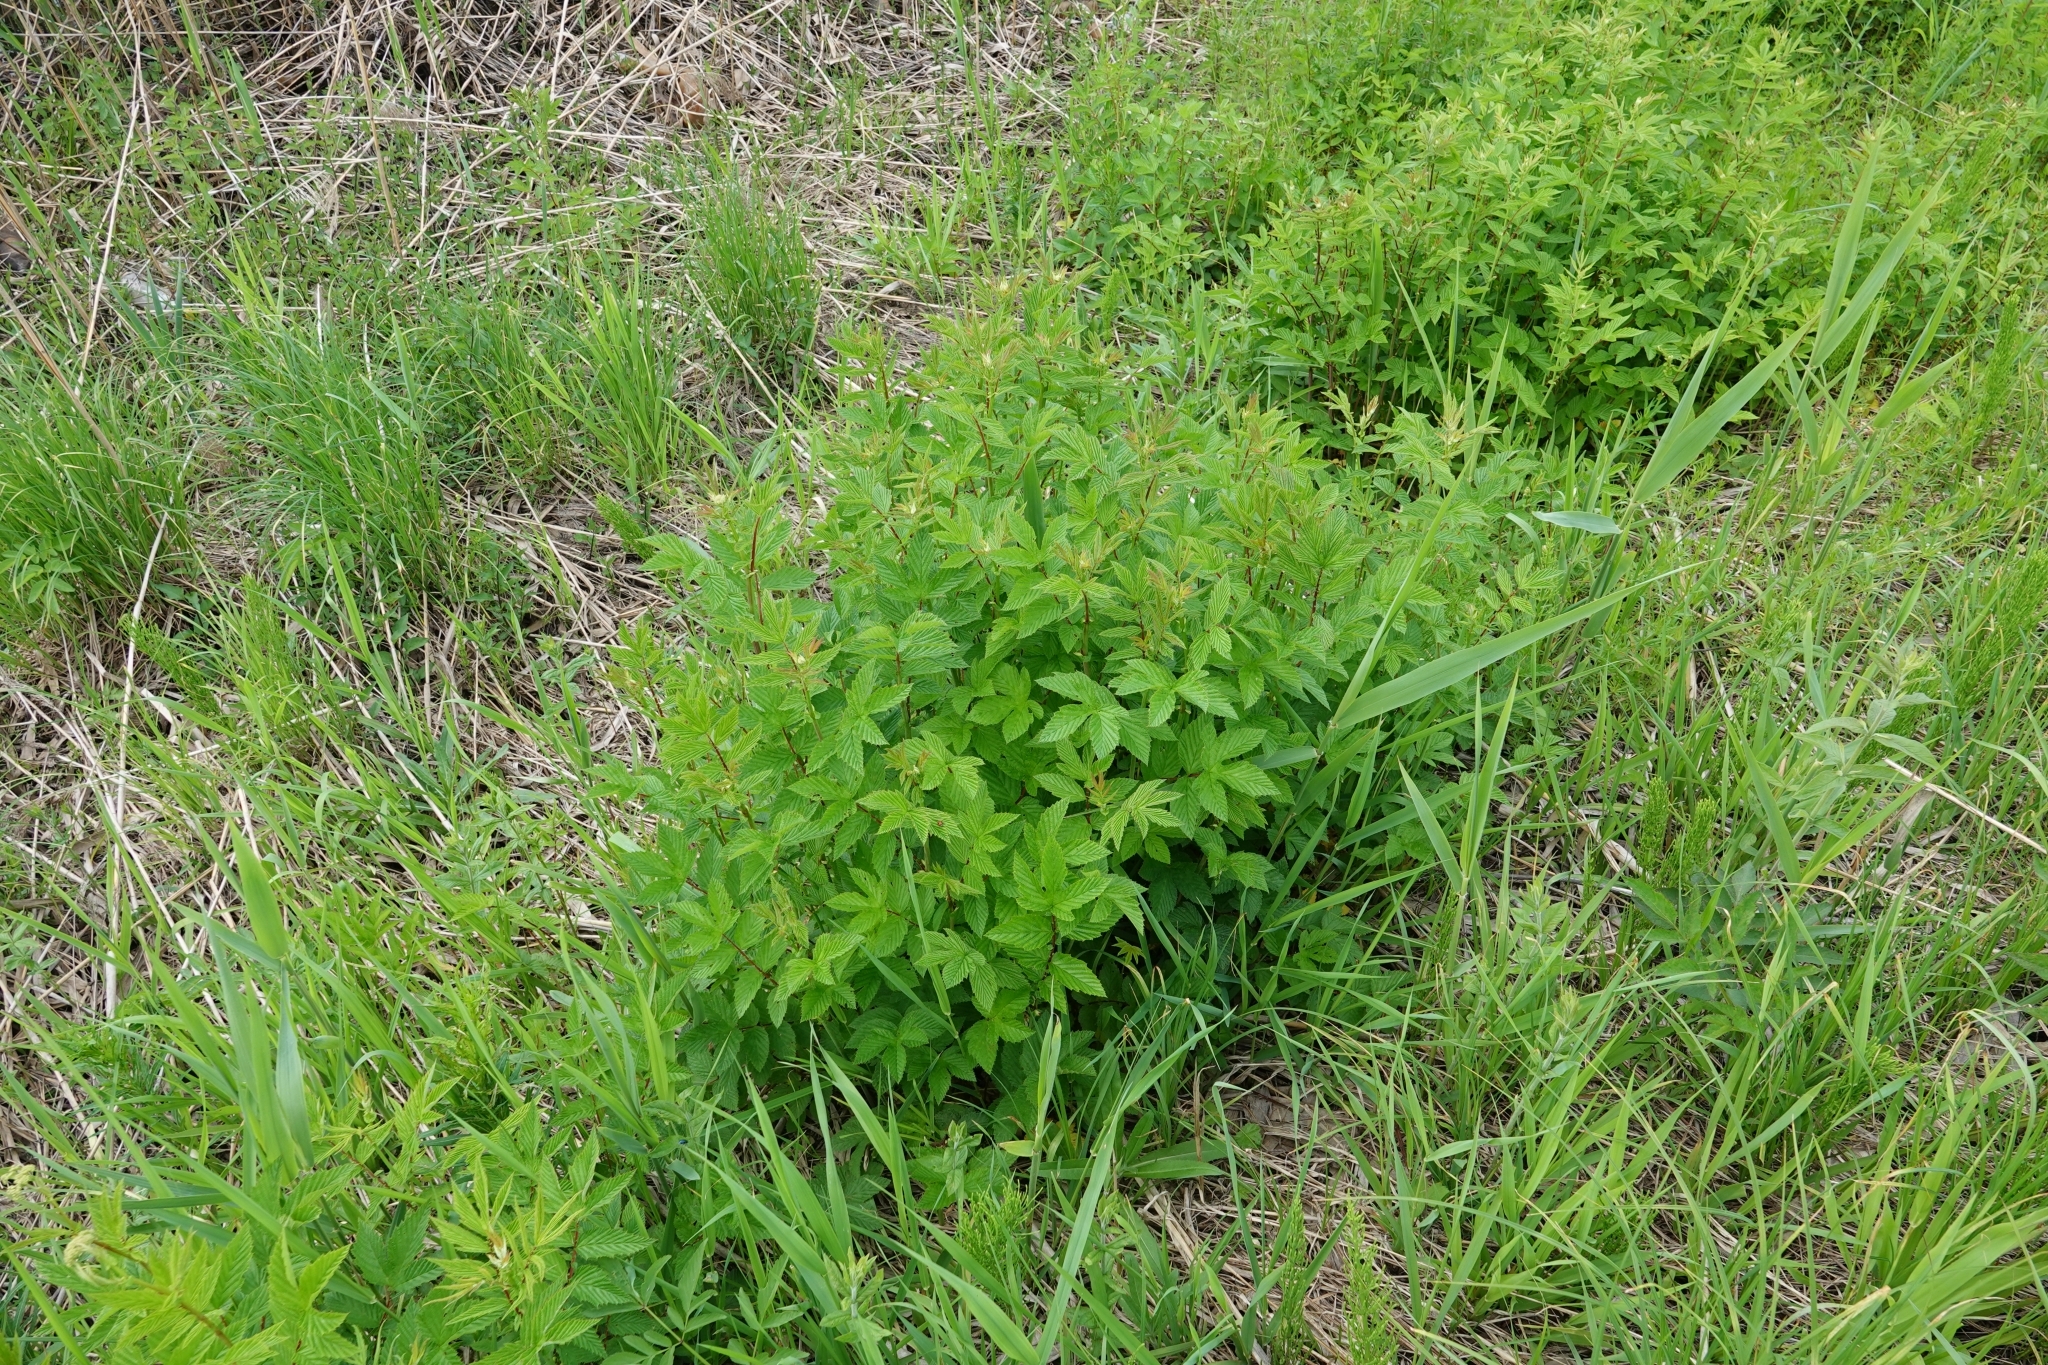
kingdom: Plantae
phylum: Tracheophyta
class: Magnoliopsida
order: Rosales
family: Rosaceae
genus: Filipendula
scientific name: Filipendula ulmaria
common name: Meadowsweet
